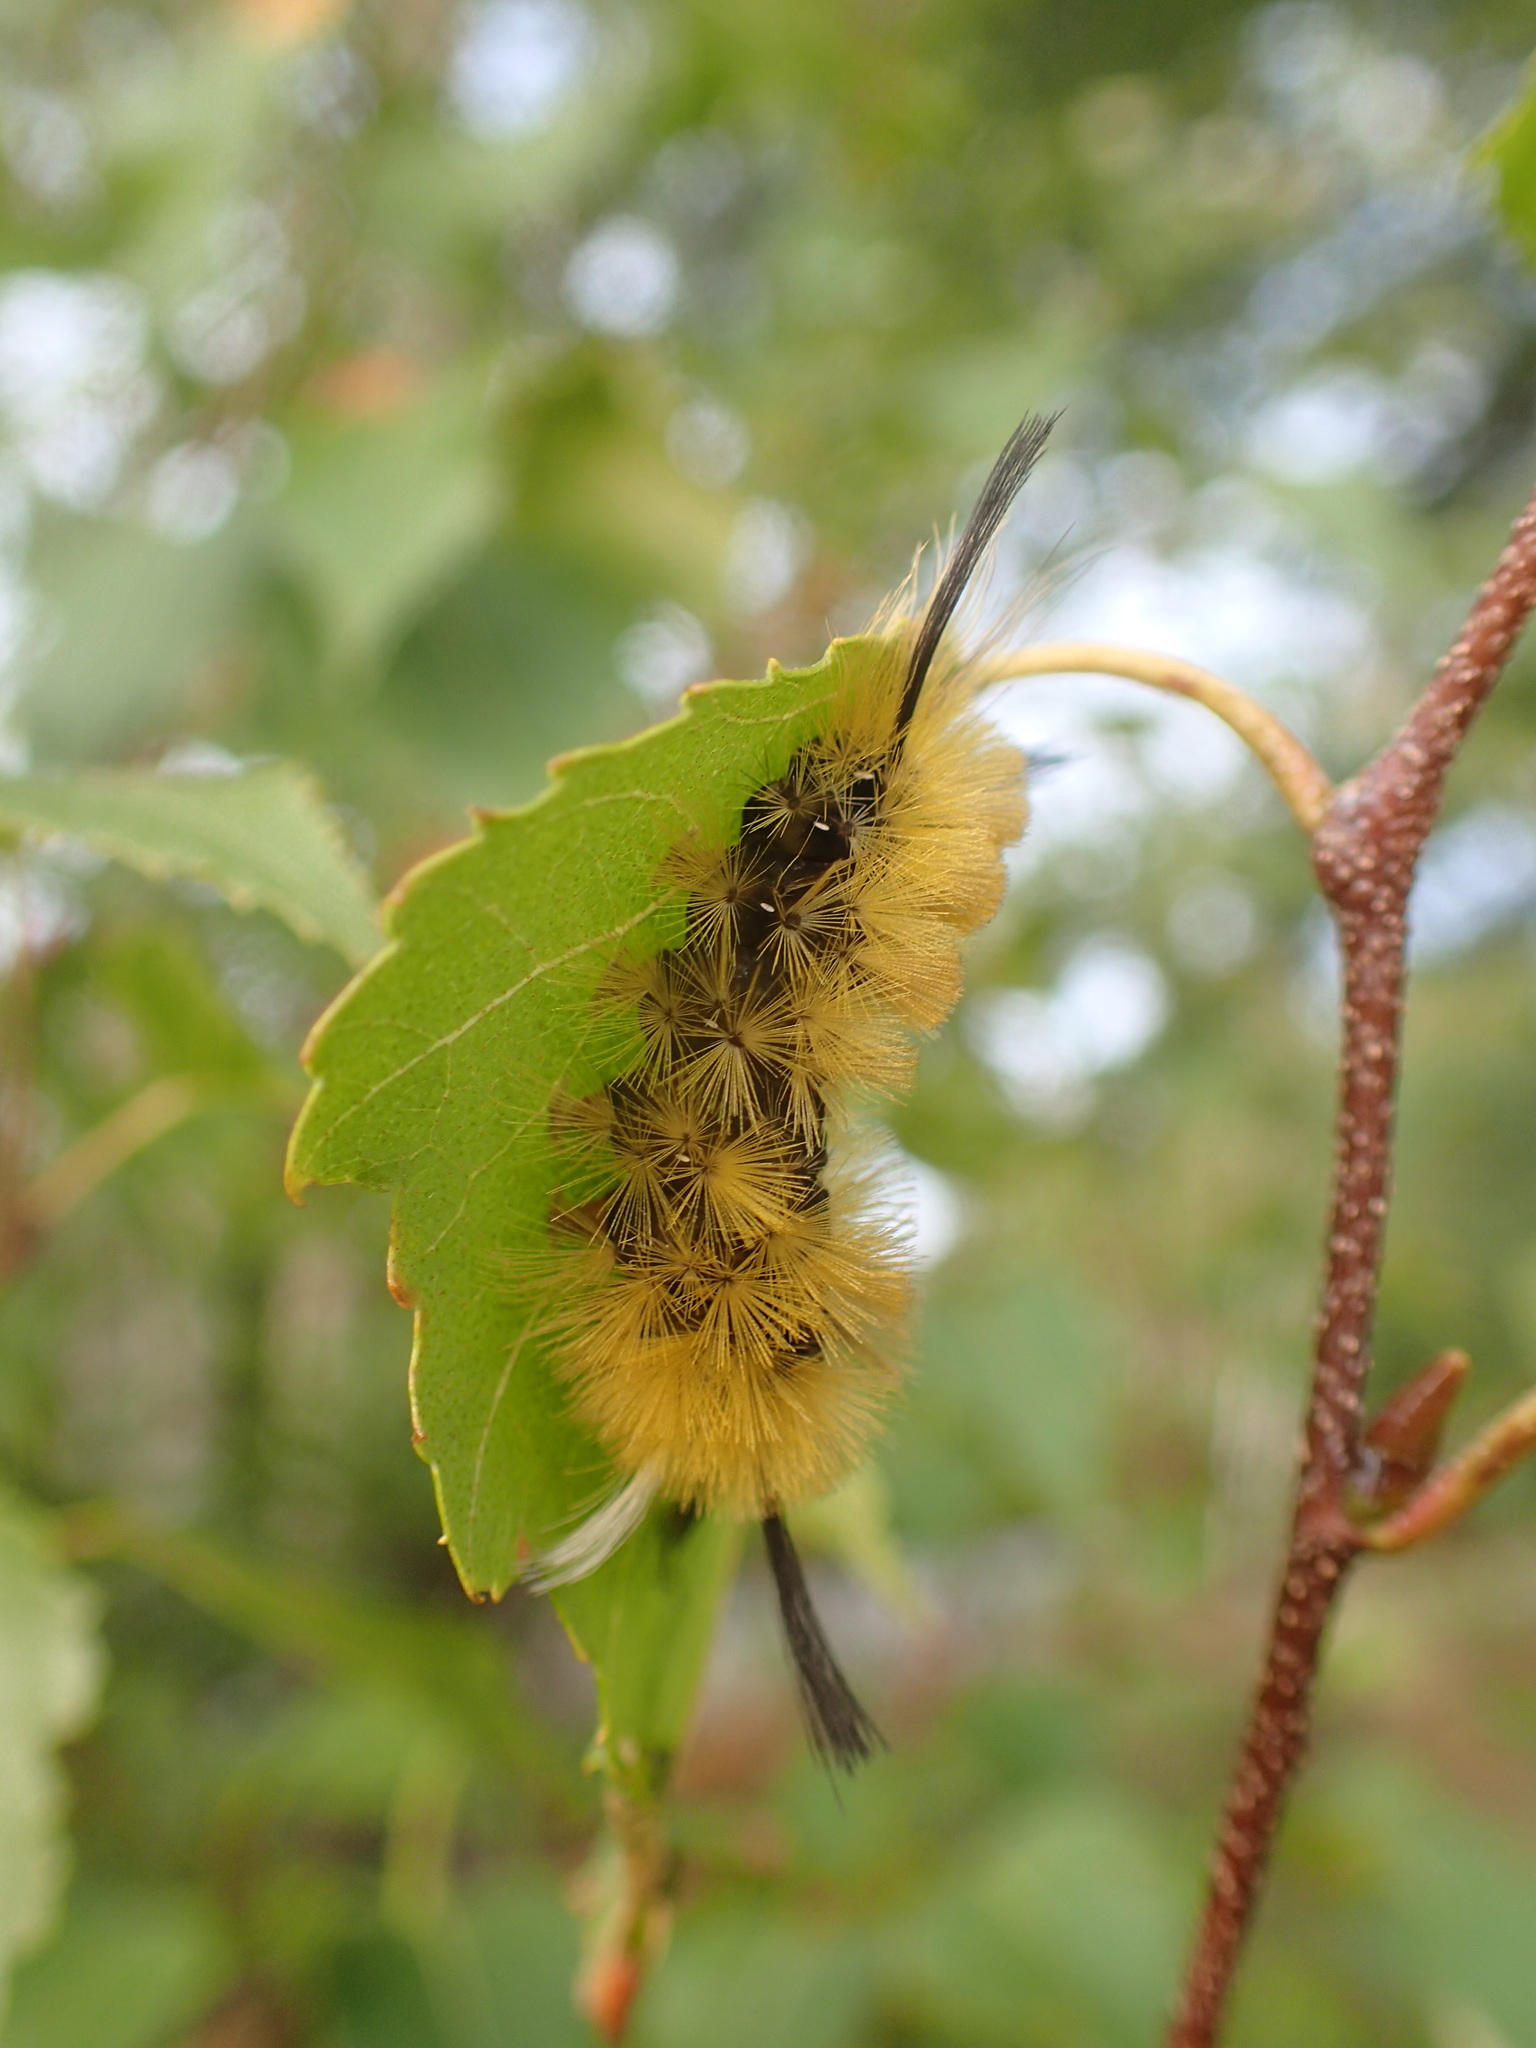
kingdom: Animalia
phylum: Arthropoda
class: Insecta
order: Lepidoptera
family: Erebidae
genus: Halysidota
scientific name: Halysidota tessellaris
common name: Banded tussock moth
